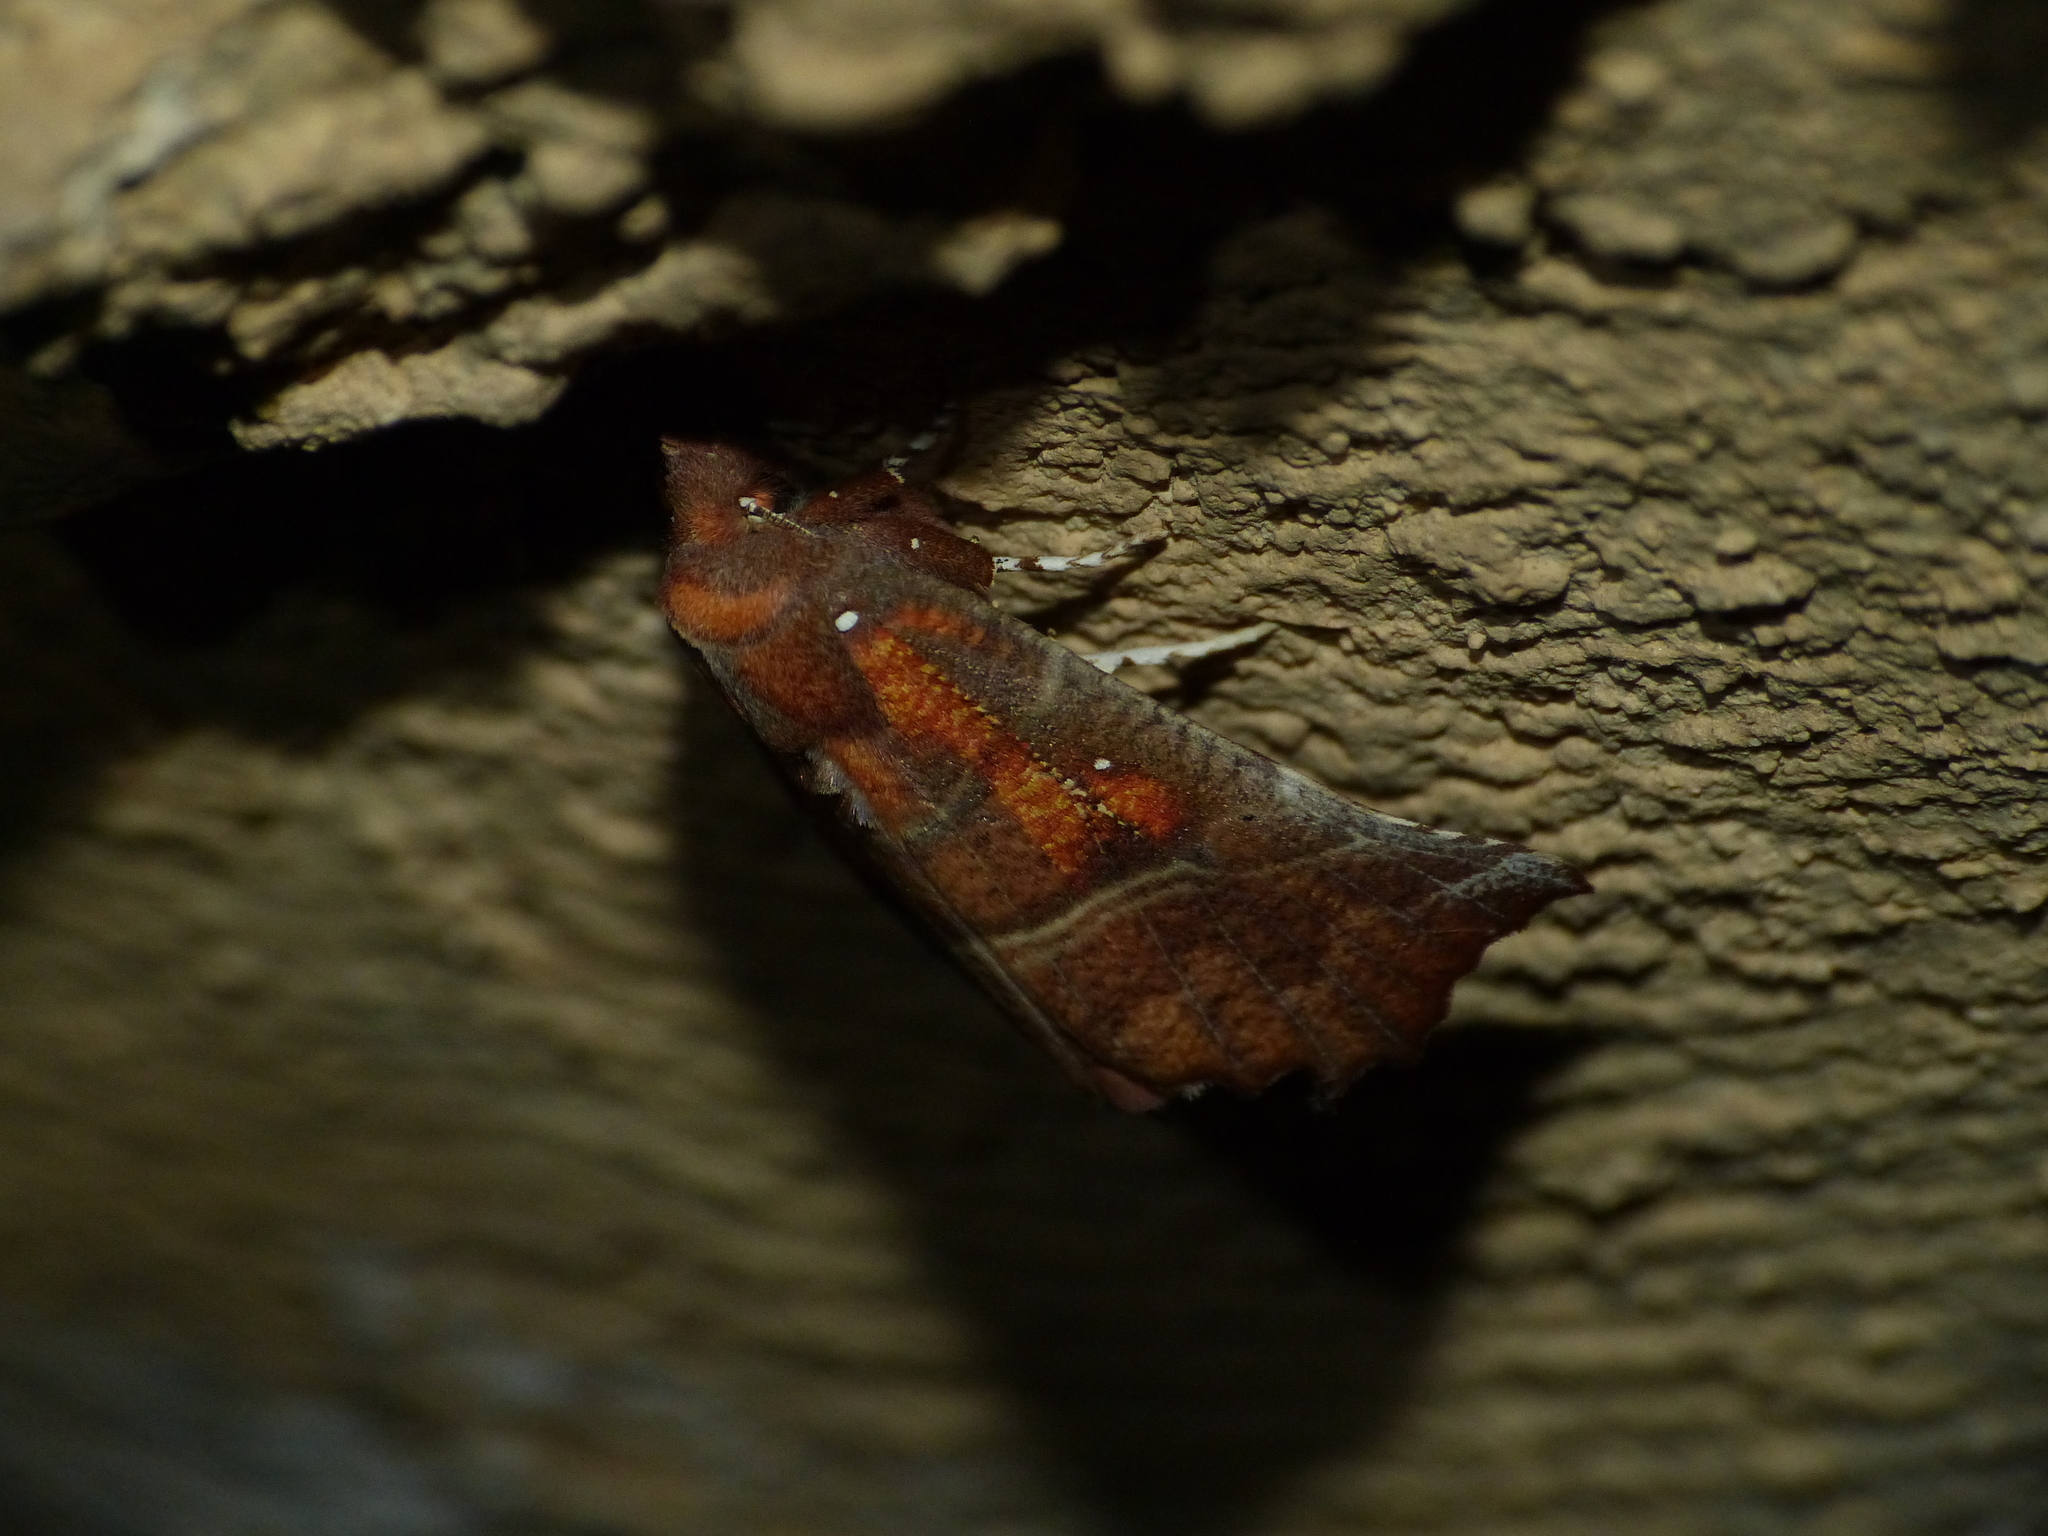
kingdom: Animalia
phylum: Arthropoda
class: Insecta
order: Lepidoptera
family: Erebidae
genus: Scoliopteryx
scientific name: Scoliopteryx libatrix
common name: Herald
